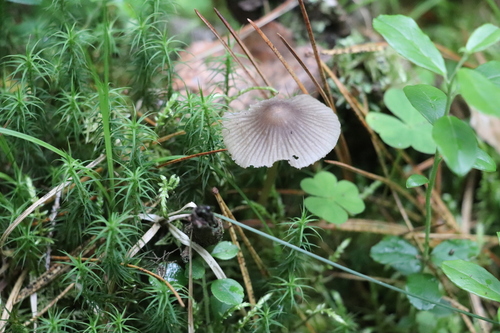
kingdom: Fungi
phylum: Basidiomycota
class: Agaricomycetes
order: Agaricales
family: Mycenaceae
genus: Mycena
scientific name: Mycena
